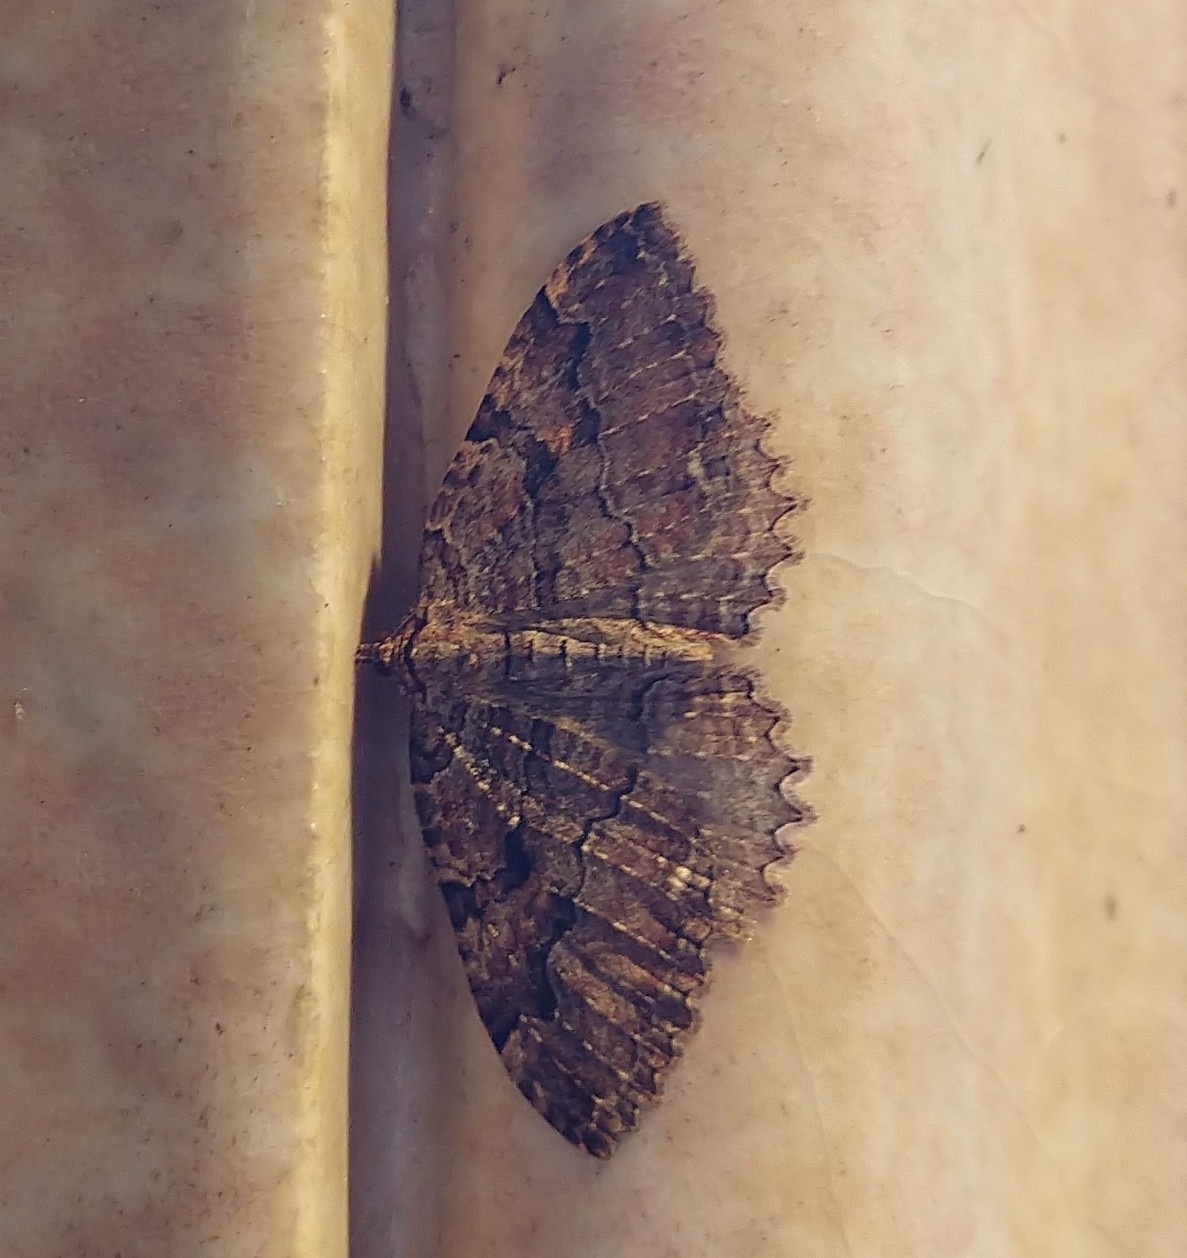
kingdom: Animalia
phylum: Arthropoda
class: Insecta
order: Lepidoptera
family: Geometridae
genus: Triphosa
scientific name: Triphosa haesitata
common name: Tissue moth
